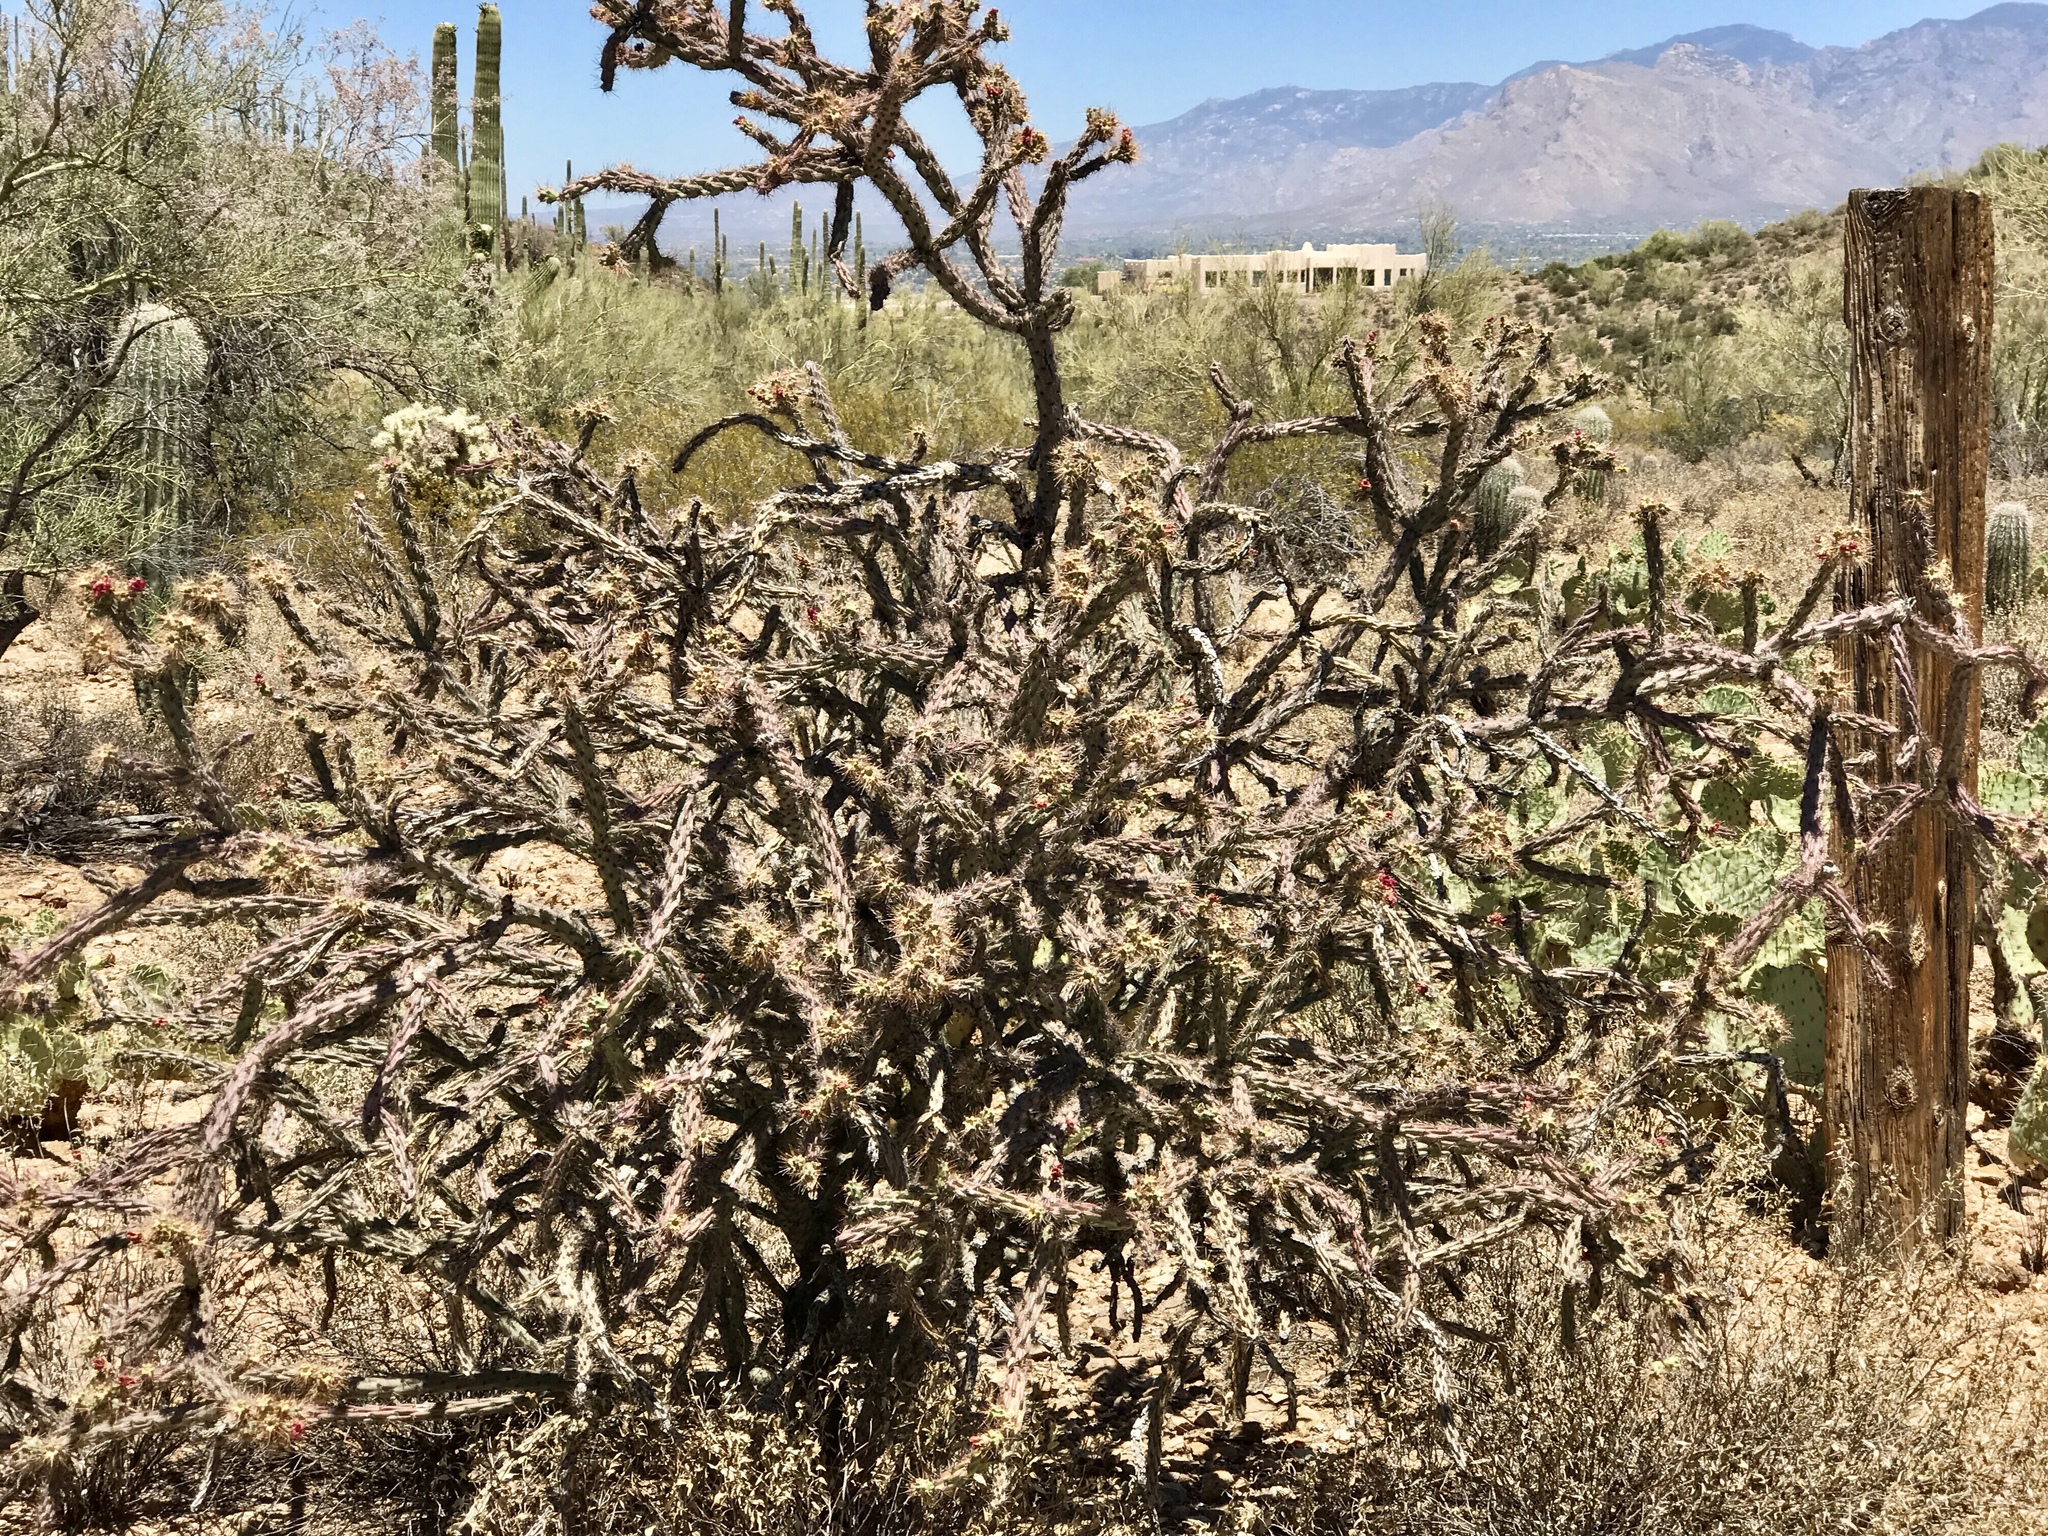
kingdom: Plantae
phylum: Tracheophyta
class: Magnoliopsida
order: Caryophyllales
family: Cactaceae
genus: Cylindropuntia
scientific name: Cylindropuntia acanthocarpa
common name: Buckhorn cholla
